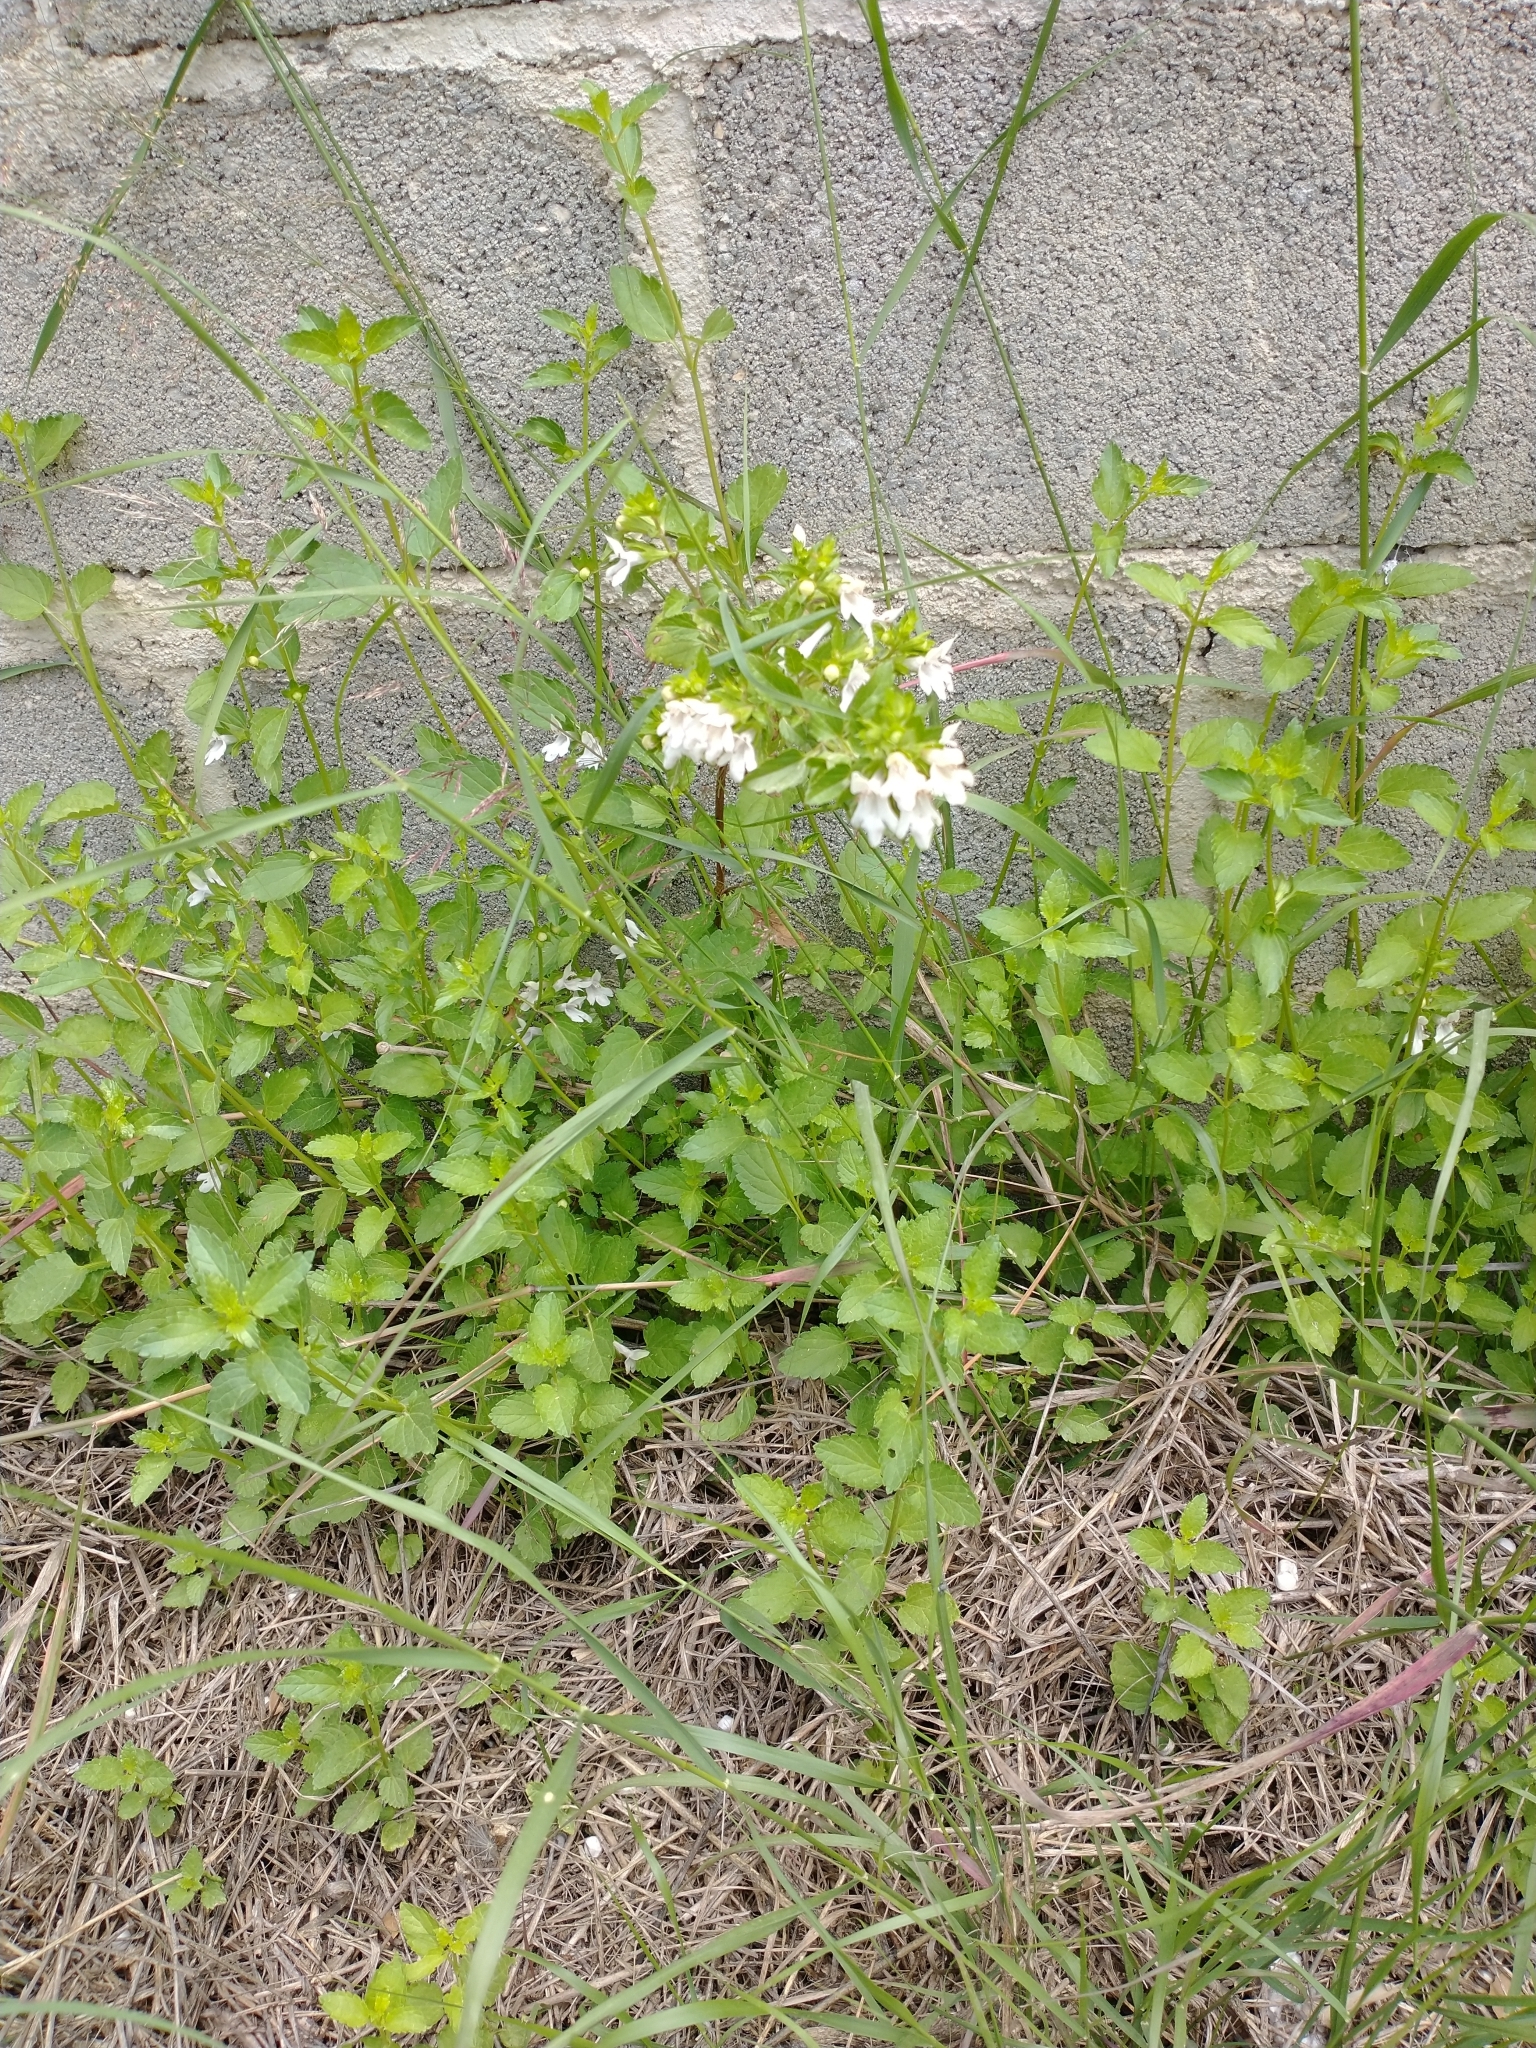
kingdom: Plantae
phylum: Tracheophyta
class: Magnoliopsida
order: Lamiales
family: Lamiaceae
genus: Prasium
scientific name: Prasium majus
